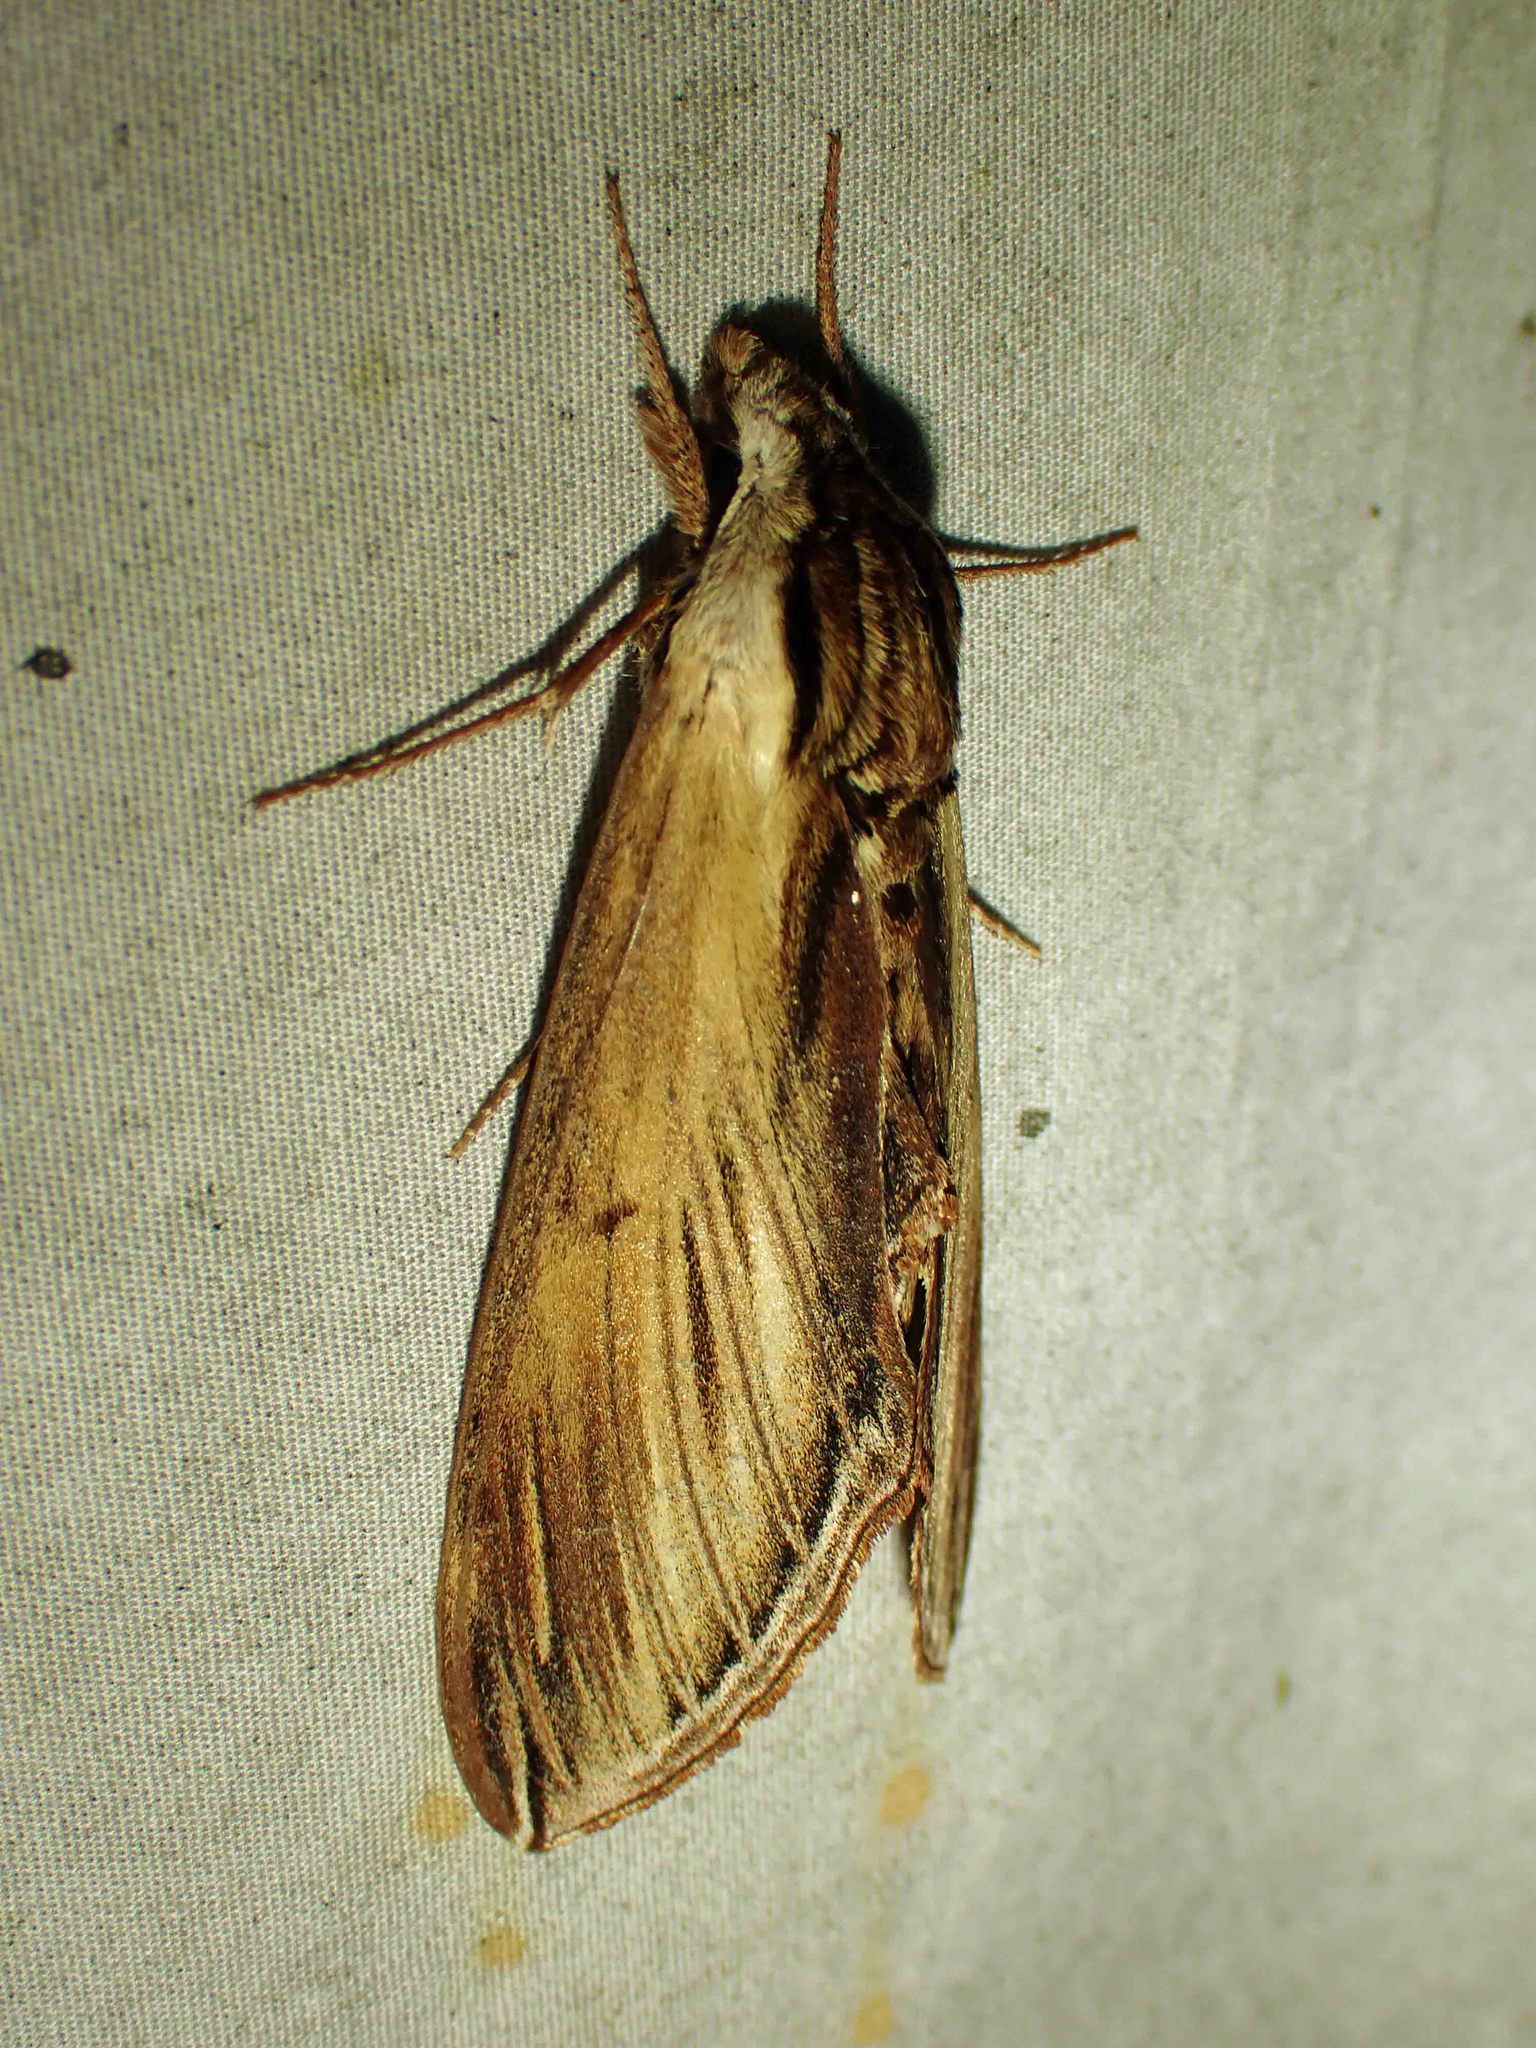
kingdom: Animalia
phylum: Arthropoda
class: Insecta
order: Lepidoptera
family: Sphingidae
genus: Sphinx
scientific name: Sphinx kalmiae
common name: Laurel sphinx
